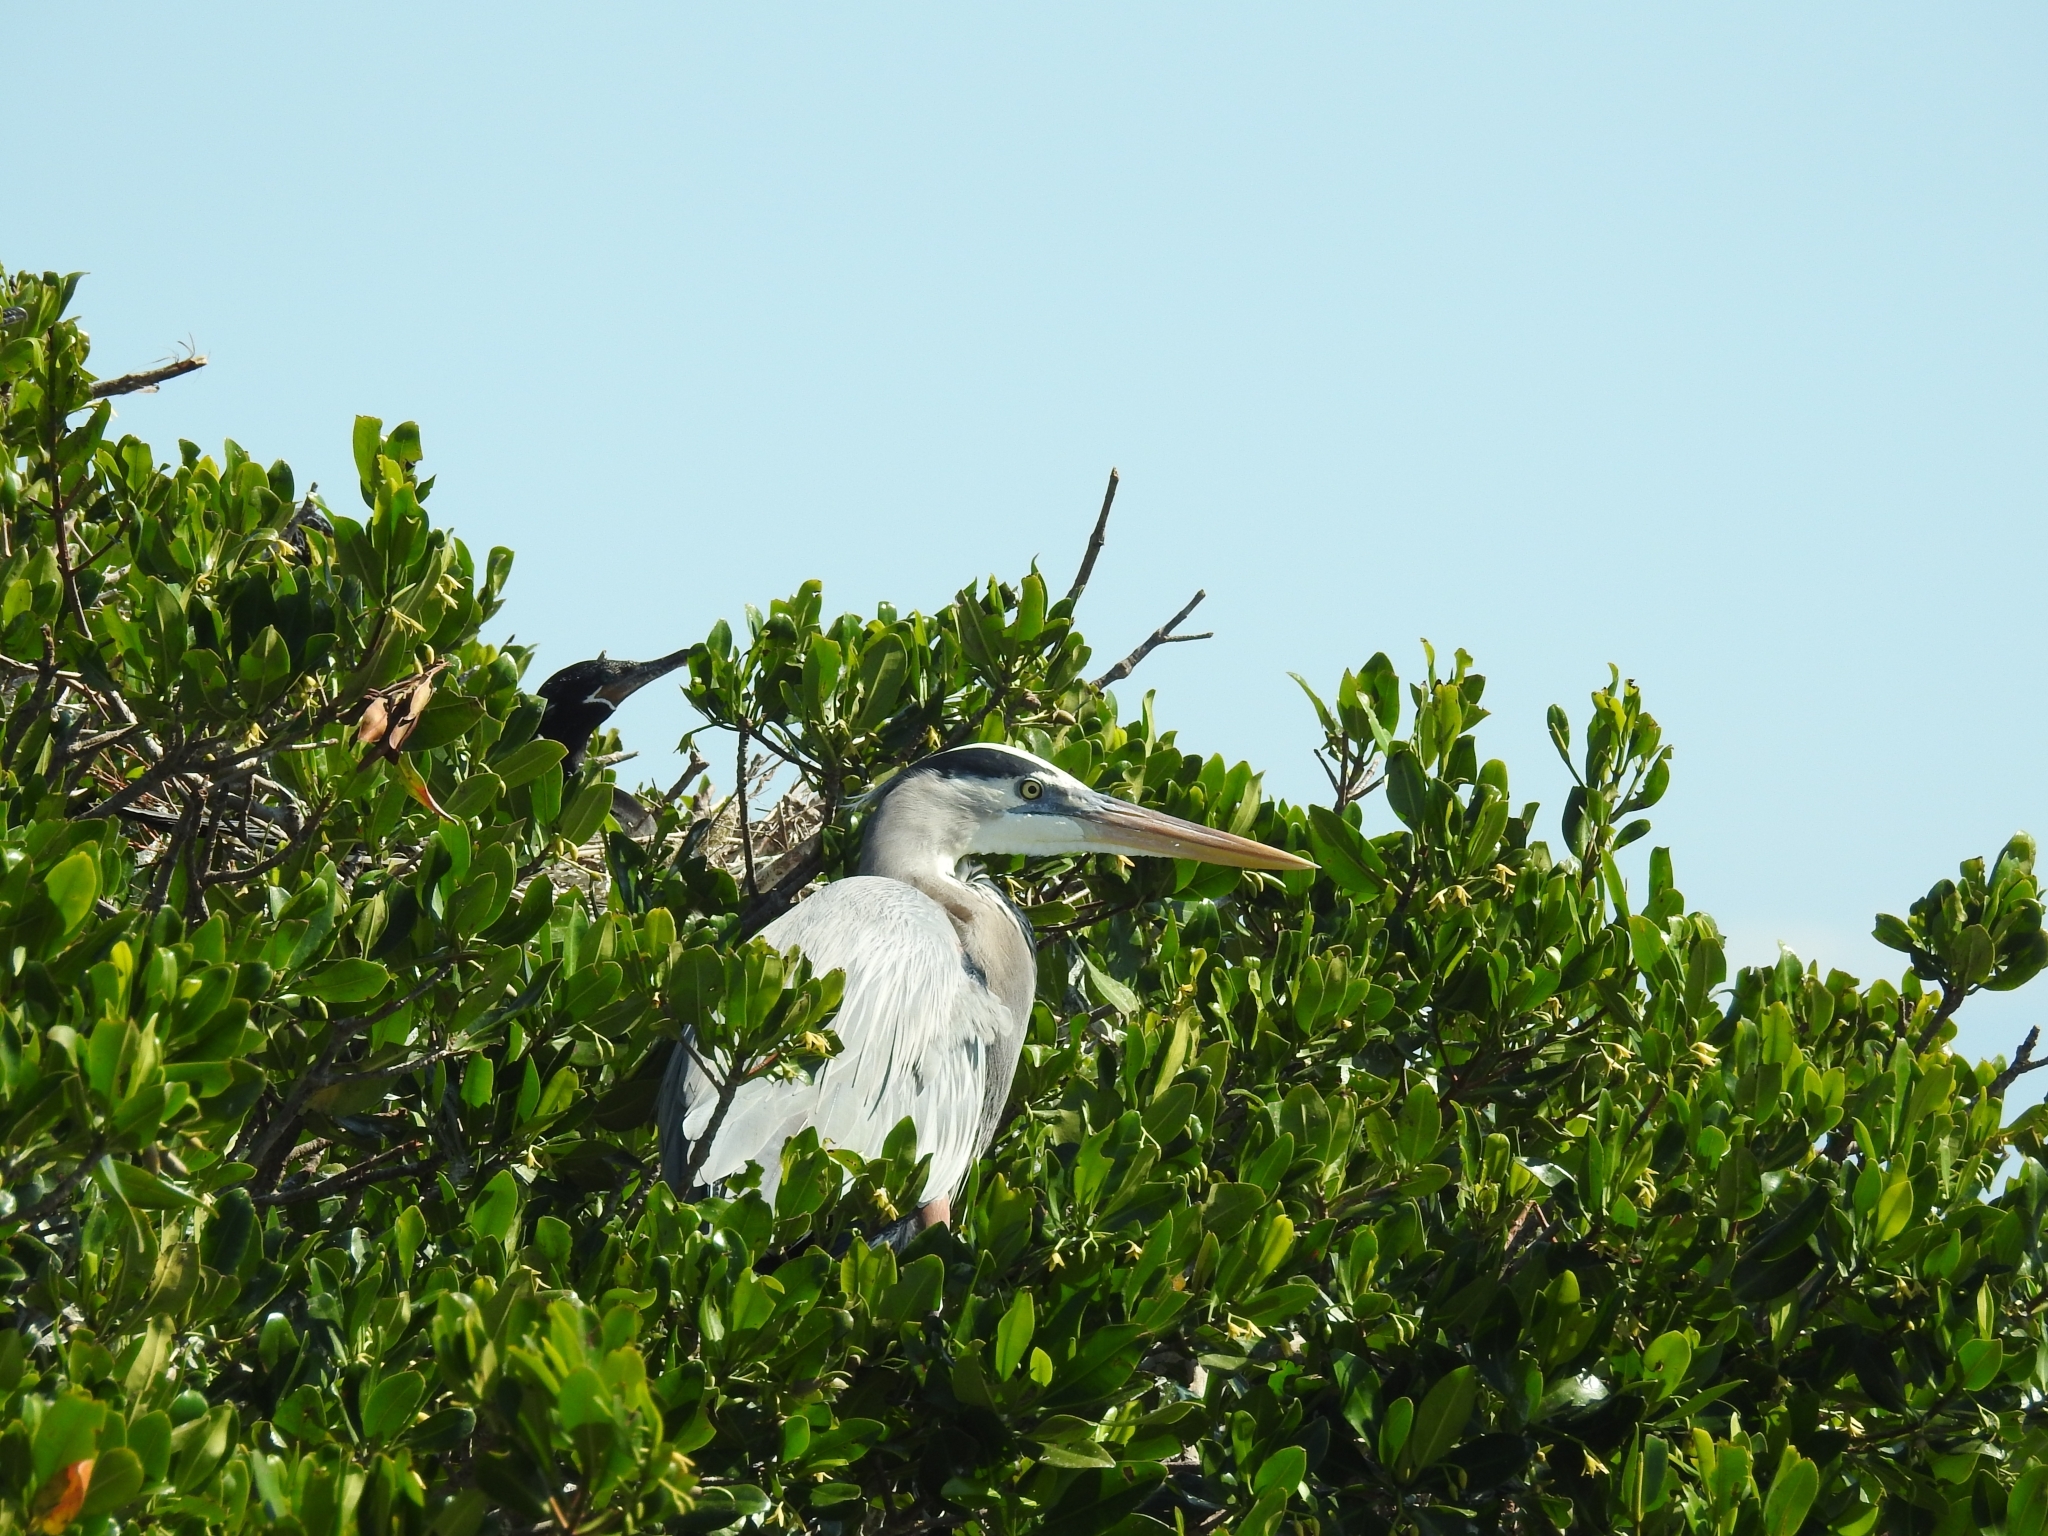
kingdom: Animalia
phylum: Chordata
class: Aves
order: Pelecaniformes
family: Ardeidae
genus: Ardea
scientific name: Ardea herodias
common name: Great blue heron
